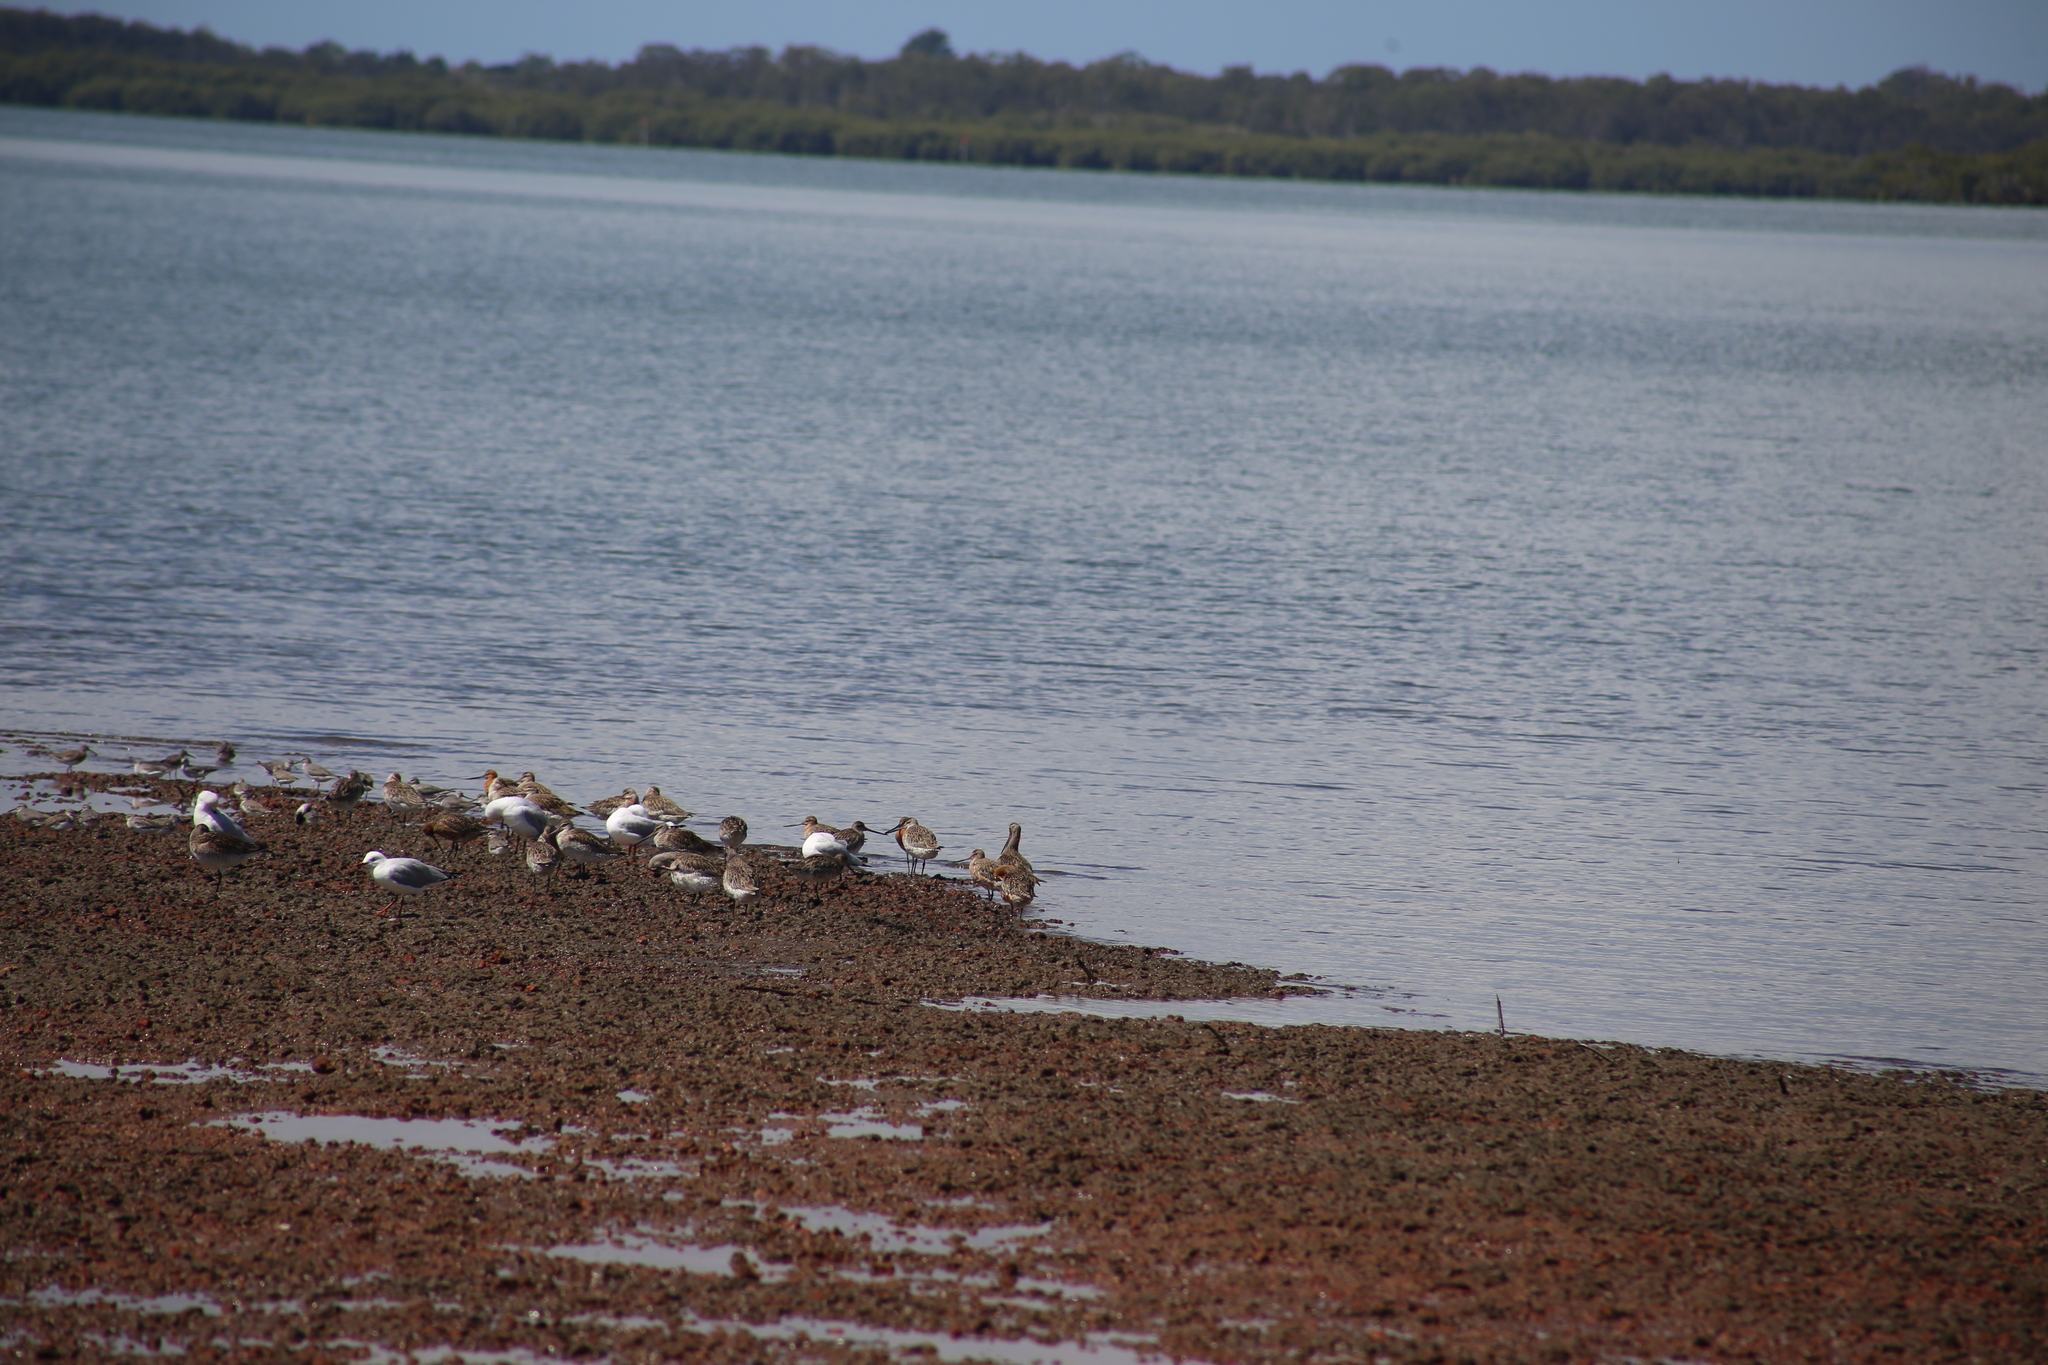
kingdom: Animalia
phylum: Chordata
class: Aves
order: Charadriiformes
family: Scolopacidae
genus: Limosa
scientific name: Limosa lapponica
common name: Bar-tailed godwit
